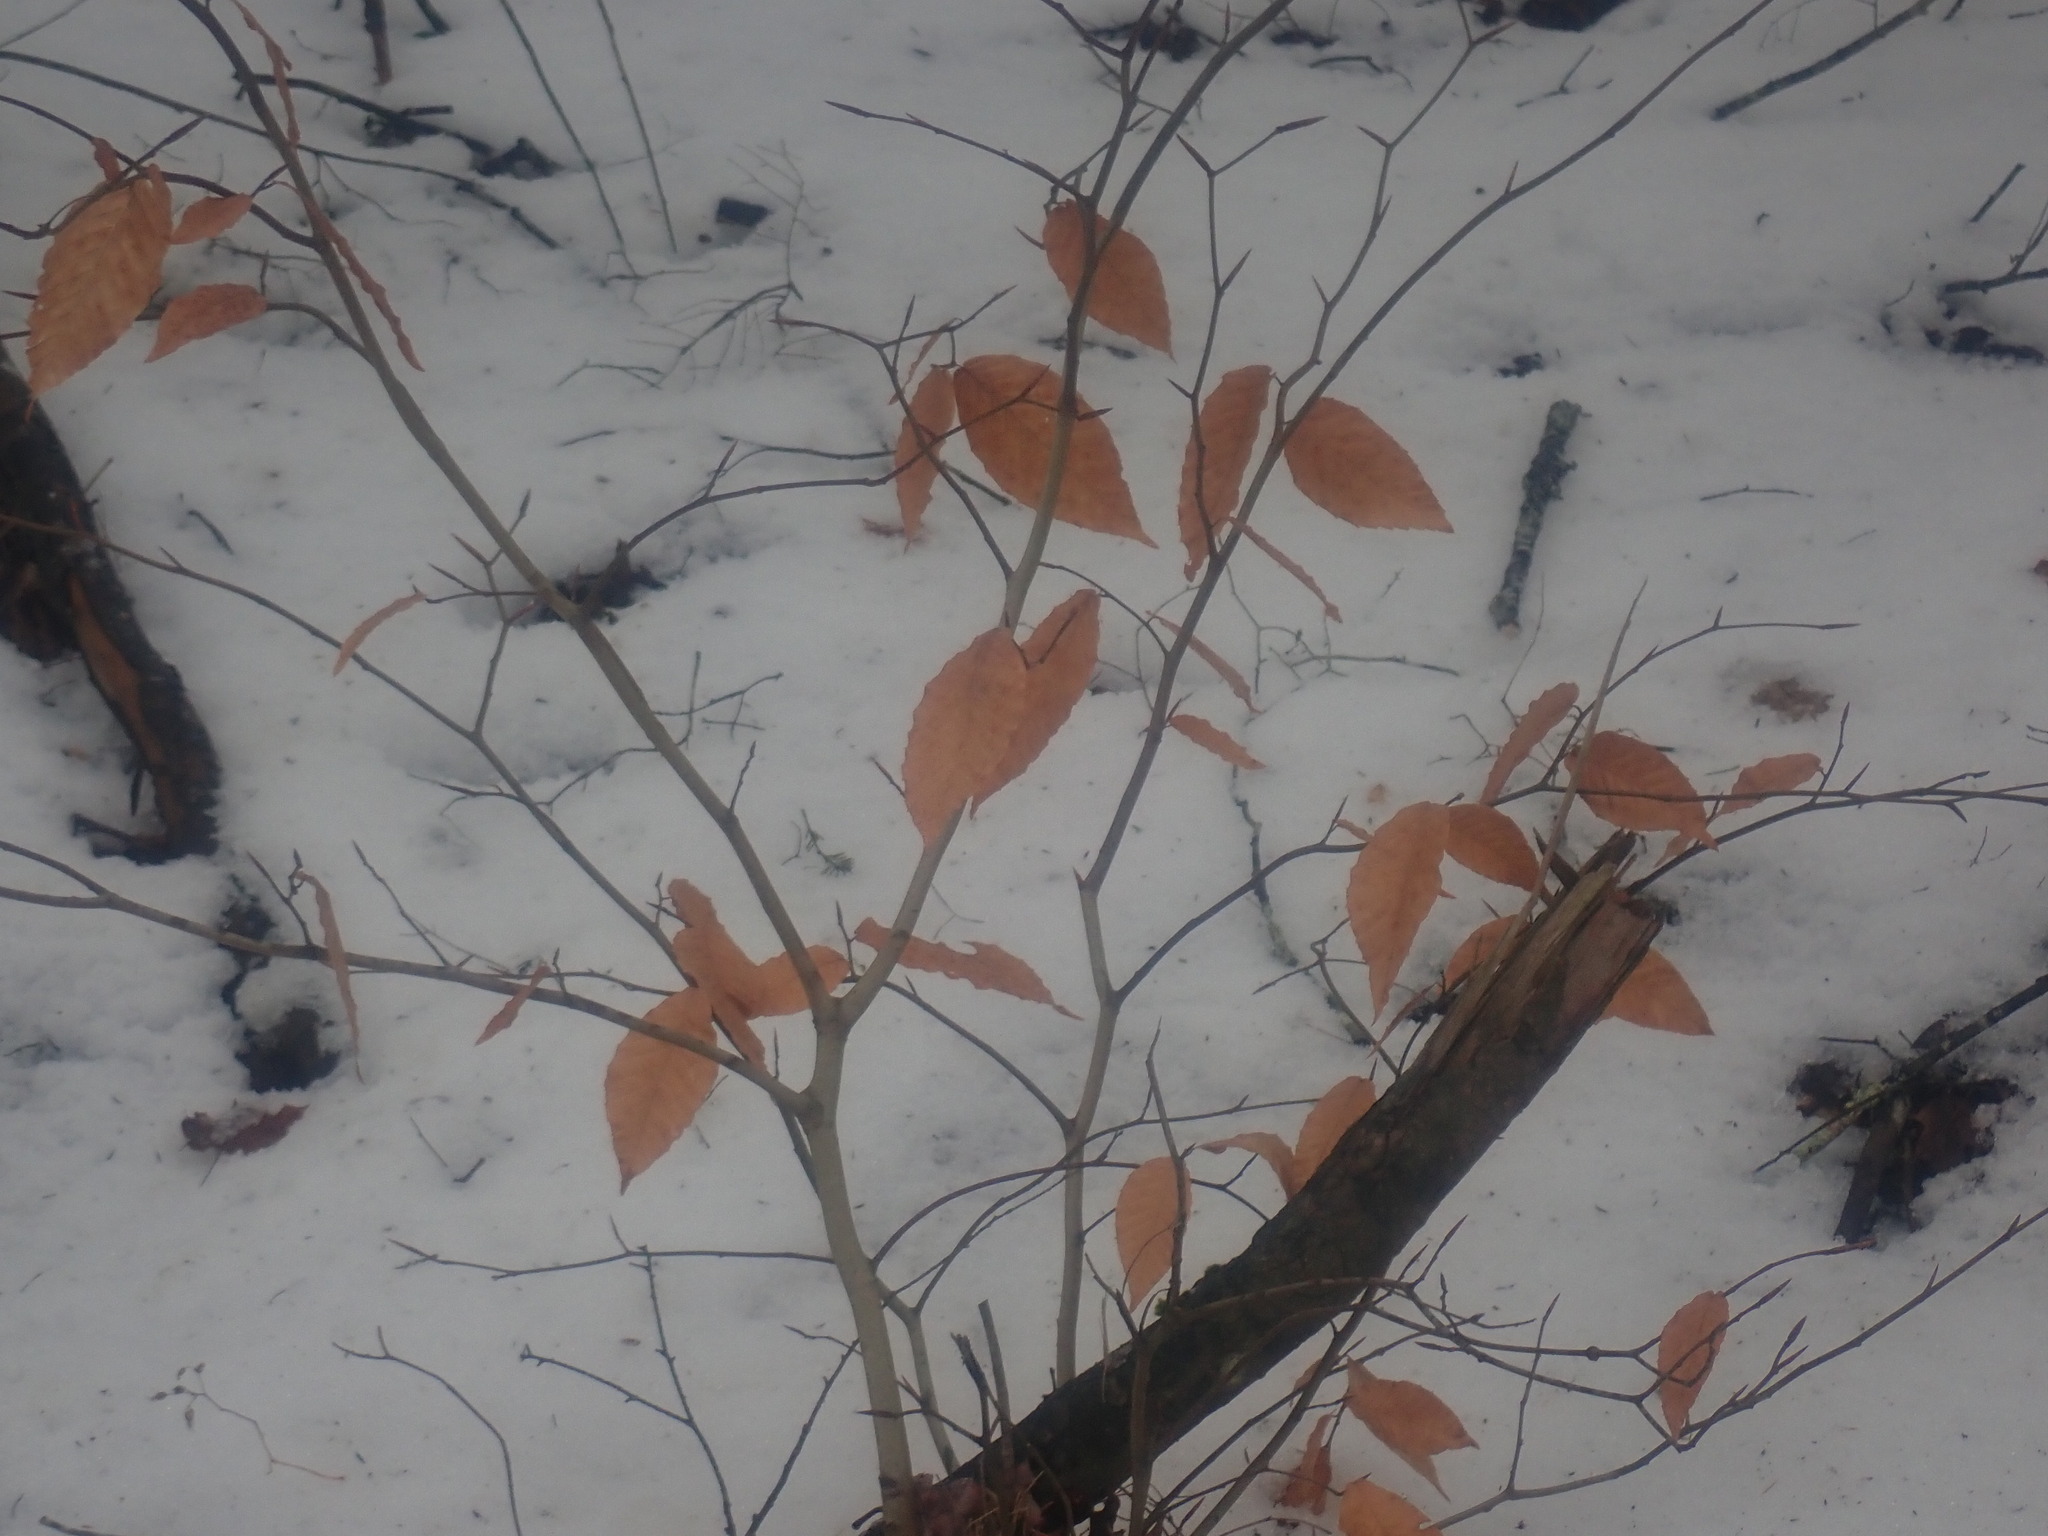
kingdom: Plantae
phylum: Tracheophyta
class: Magnoliopsida
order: Fagales
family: Fagaceae
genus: Fagus
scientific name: Fagus grandifolia
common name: American beech
